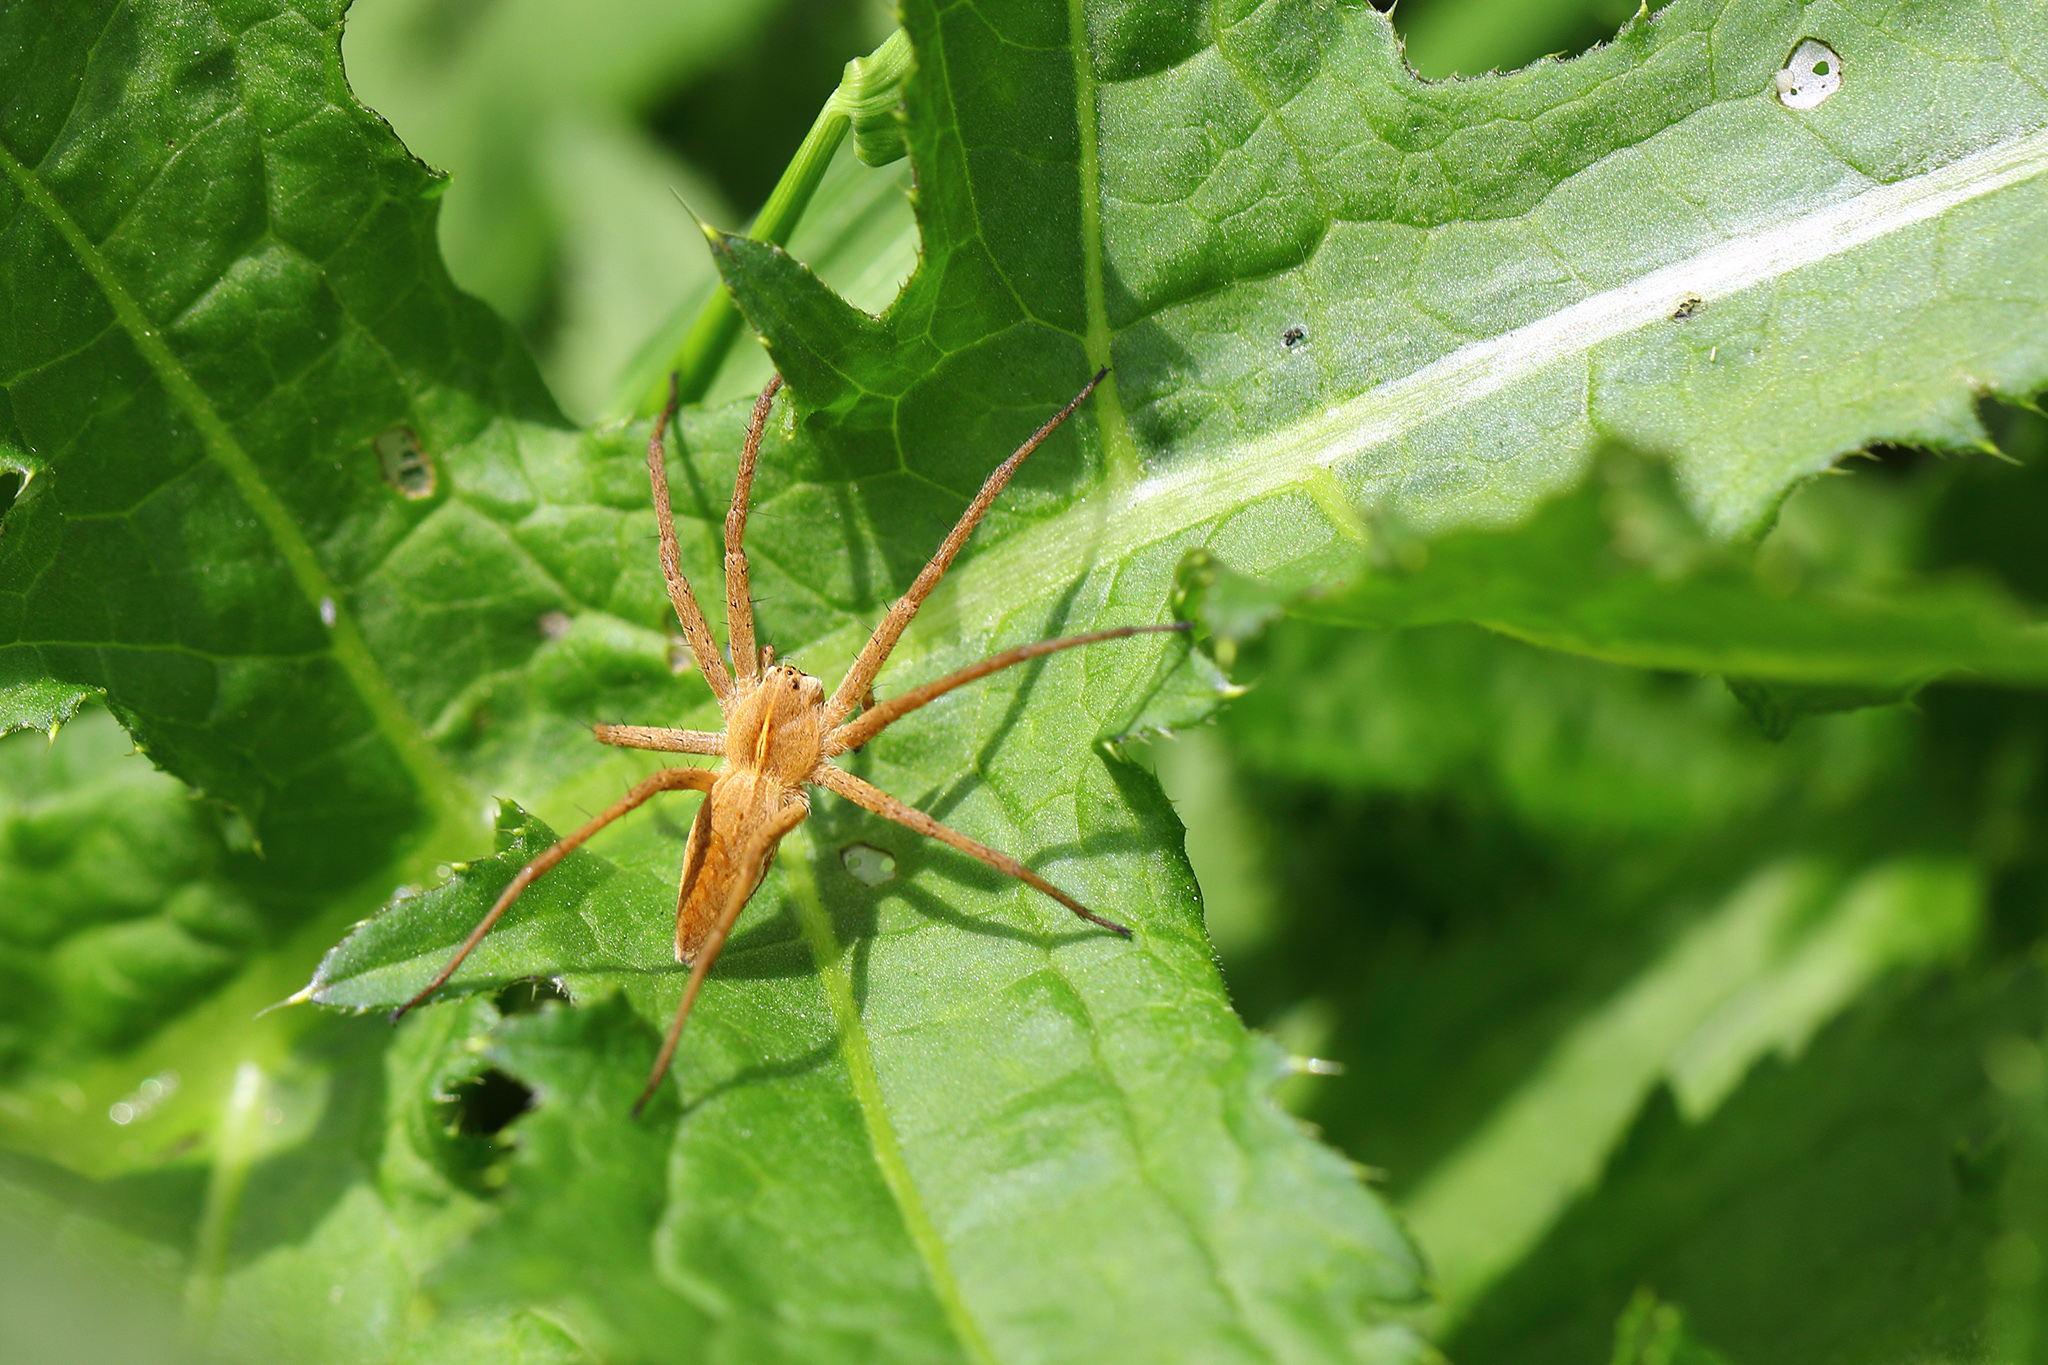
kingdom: Animalia
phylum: Arthropoda
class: Arachnida
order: Araneae
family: Pisauridae
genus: Pisaura
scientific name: Pisaura mirabilis
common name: Tent spider
